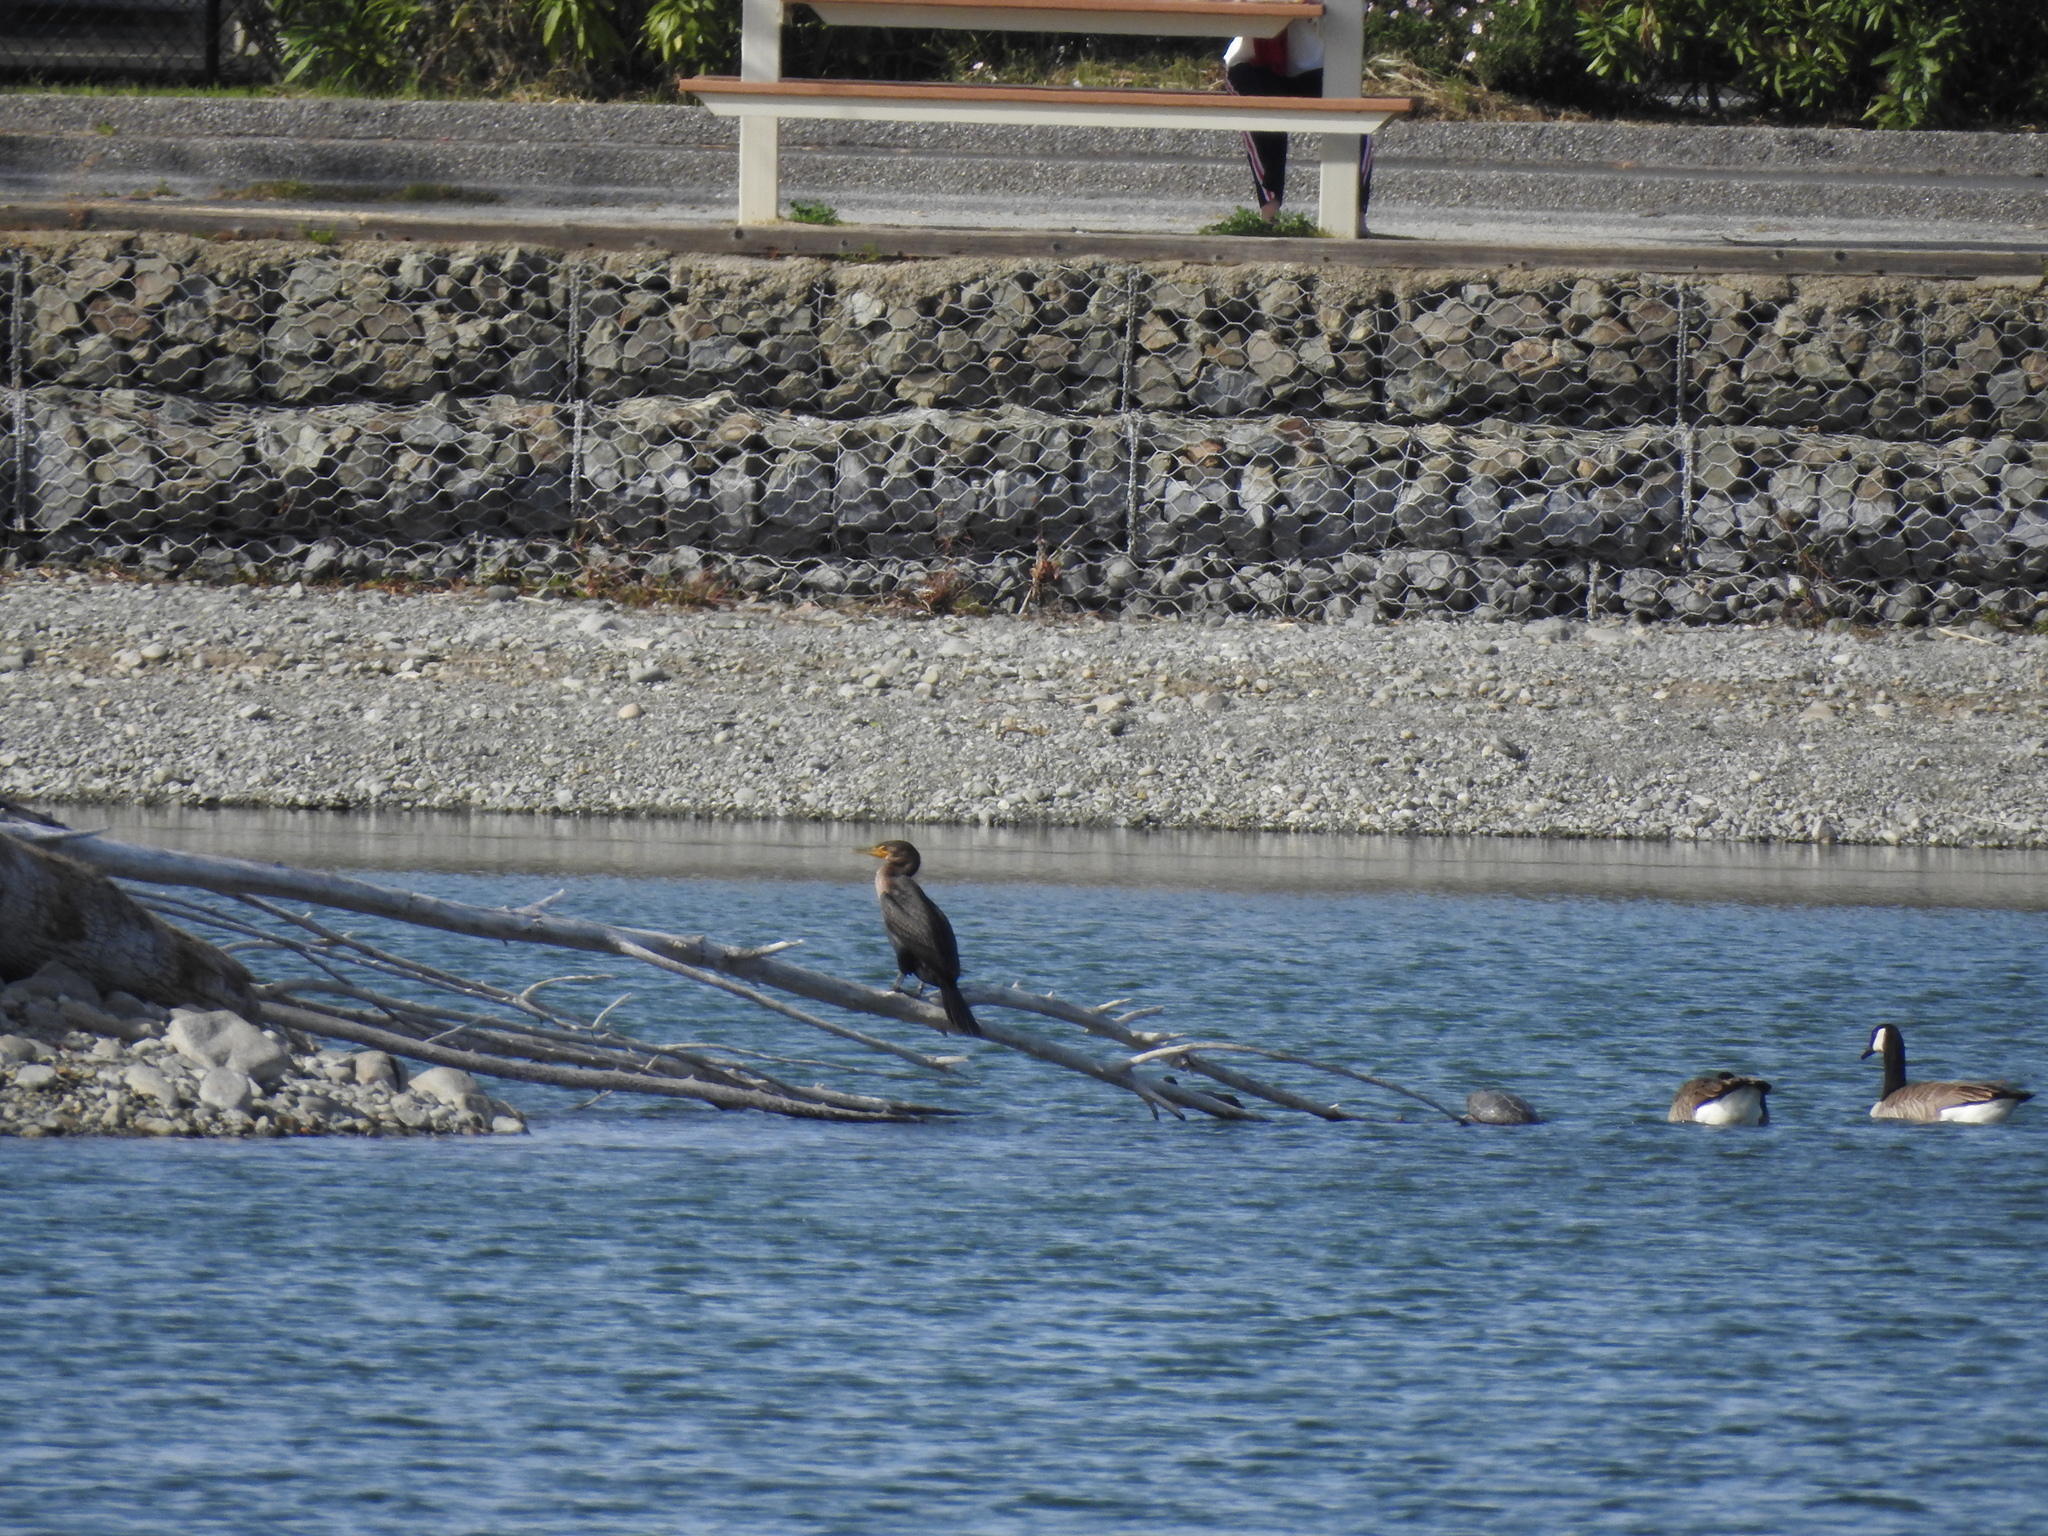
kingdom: Animalia
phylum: Chordata
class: Aves
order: Suliformes
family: Phalacrocoracidae
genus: Phalacrocorax
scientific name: Phalacrocorax auritus
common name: Double-crested cormorant
